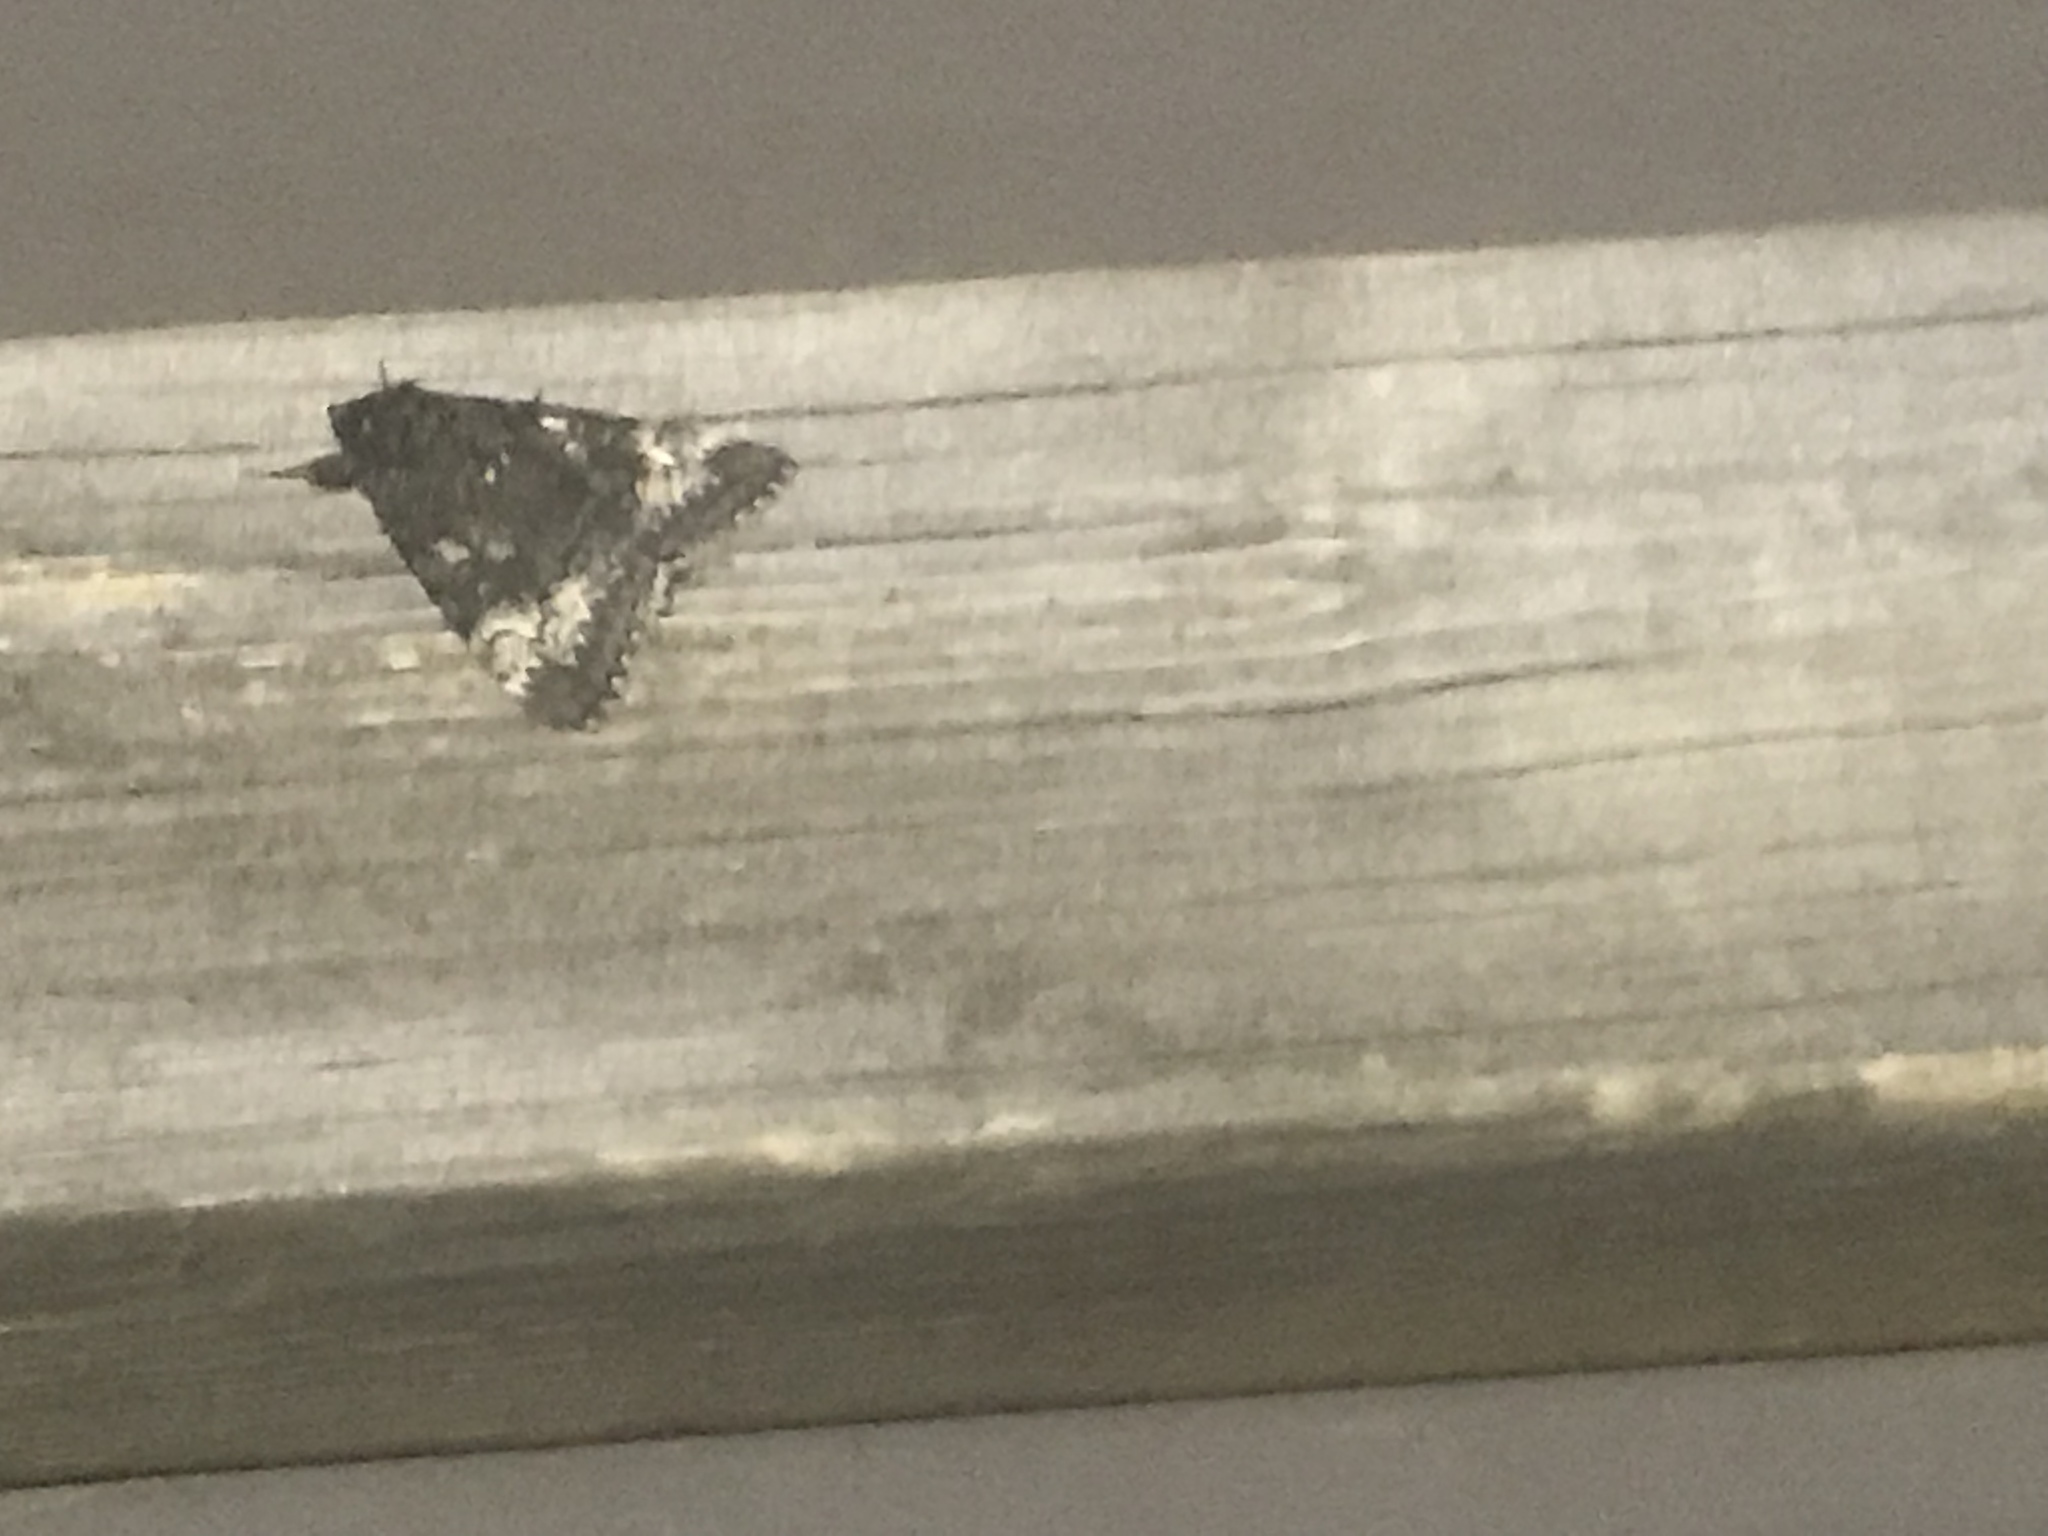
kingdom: Animalia
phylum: Arthropoda
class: Insecta
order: Lepidoptera
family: Erebidae
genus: Catocala
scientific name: Catocala briseis
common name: Briseis underwing
